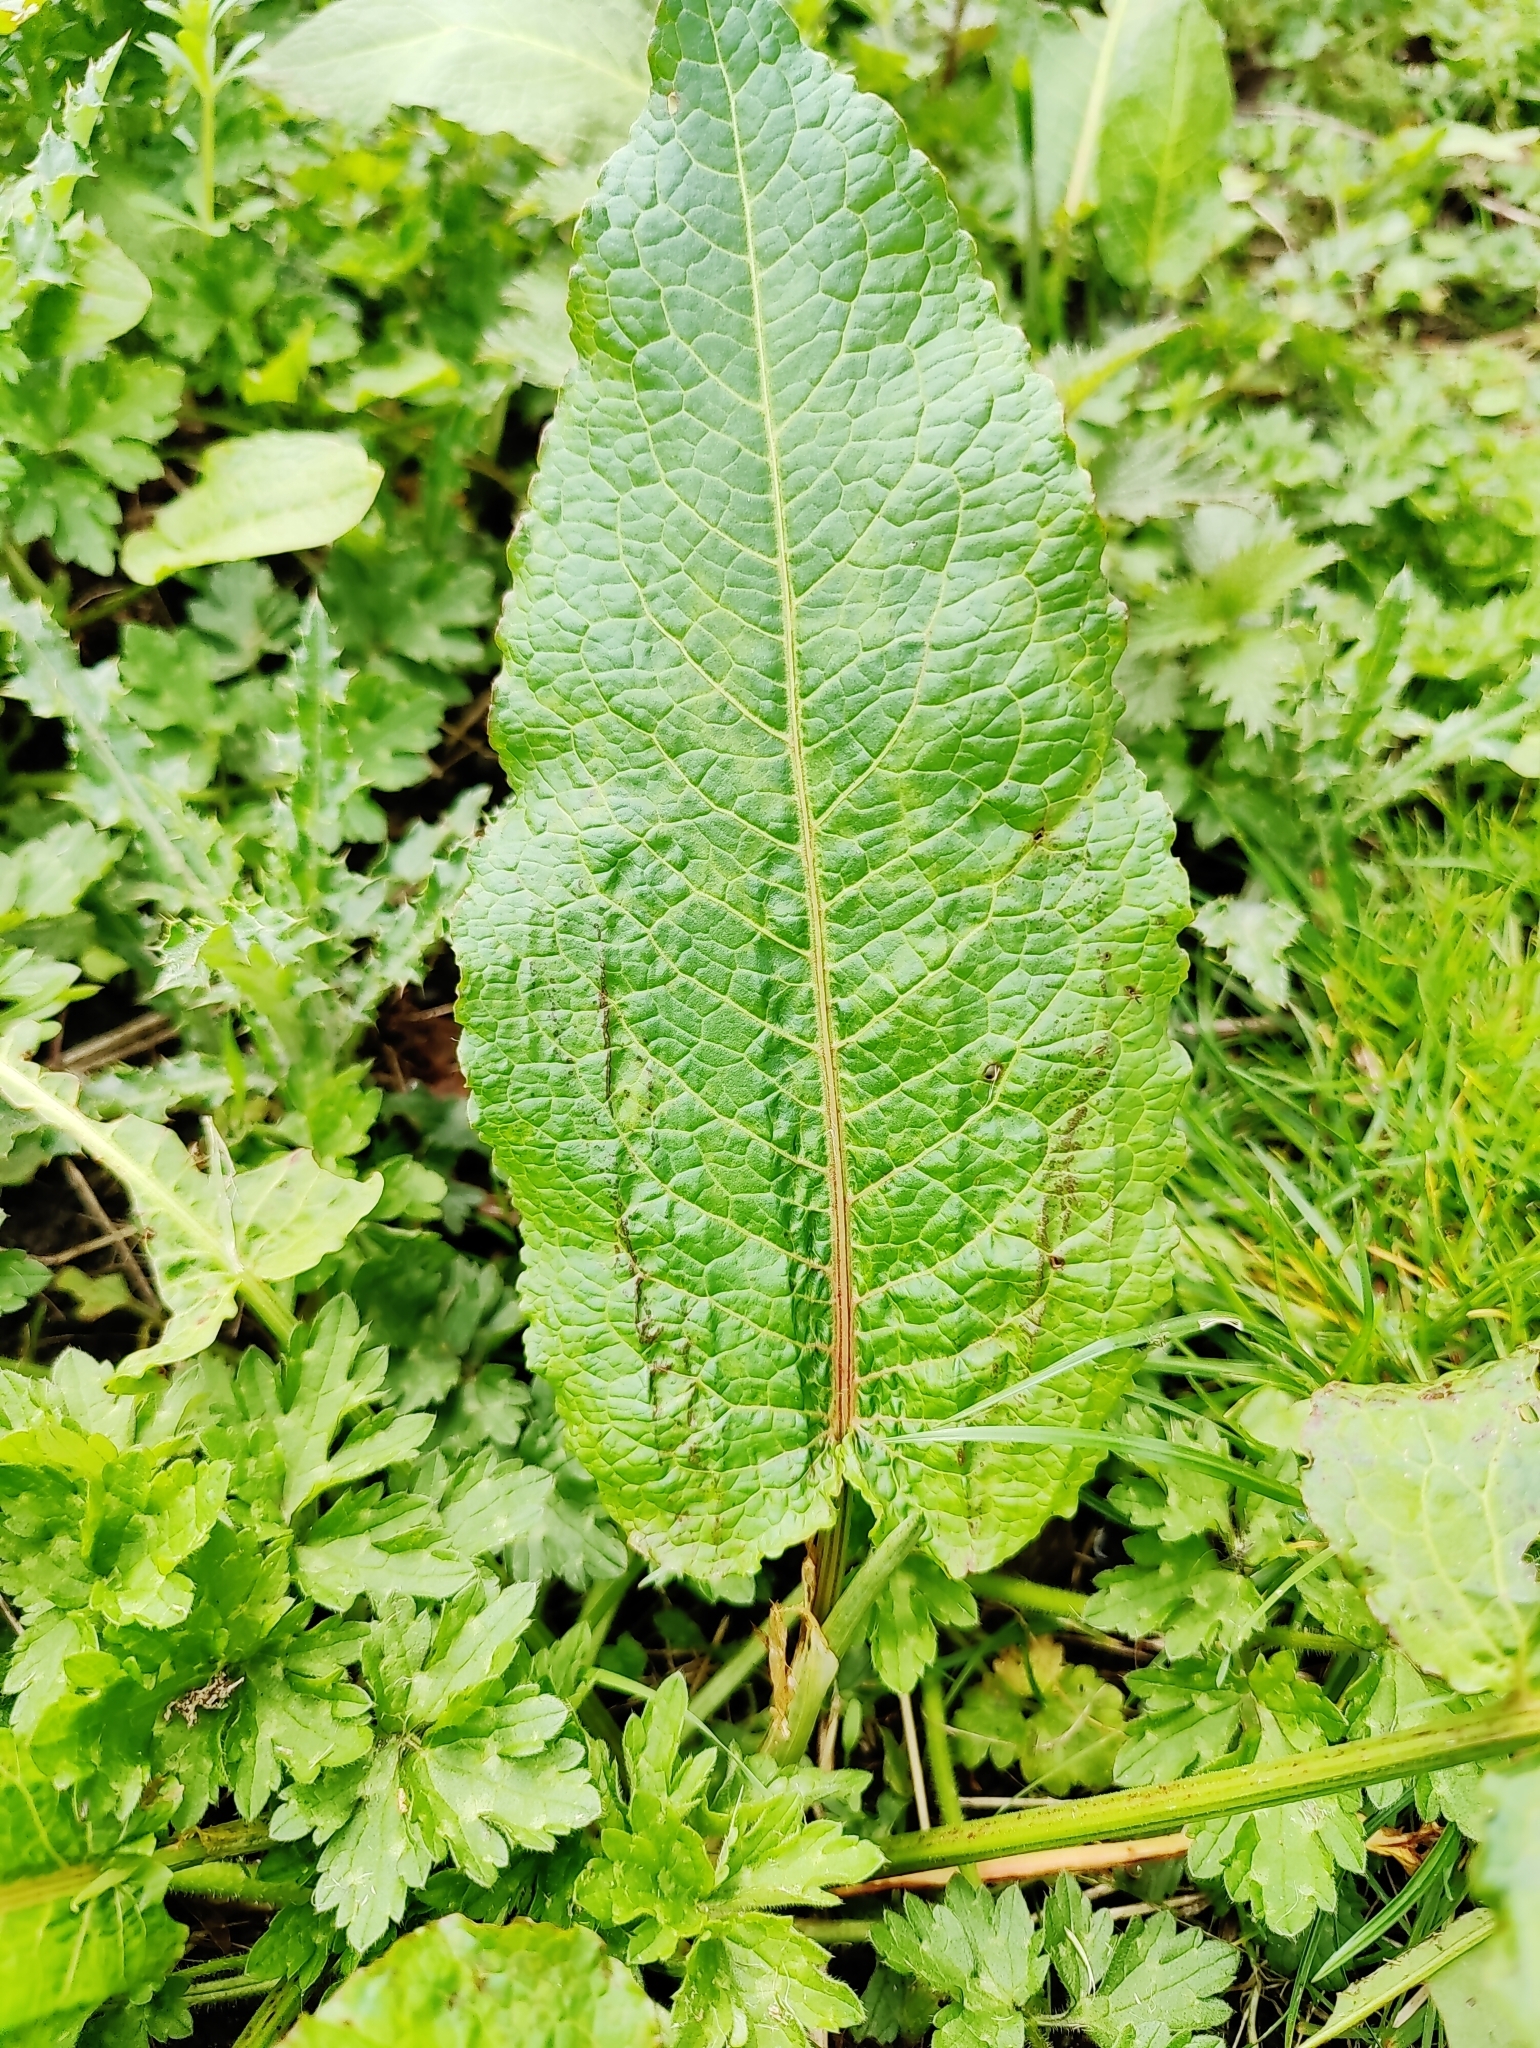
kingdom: Plantae
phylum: Tracheophyta
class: Magnoliopsida
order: Caryophyllales
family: Polygonaceae
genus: Rumex
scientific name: Rumex obtusifolius
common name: Bitter dock
